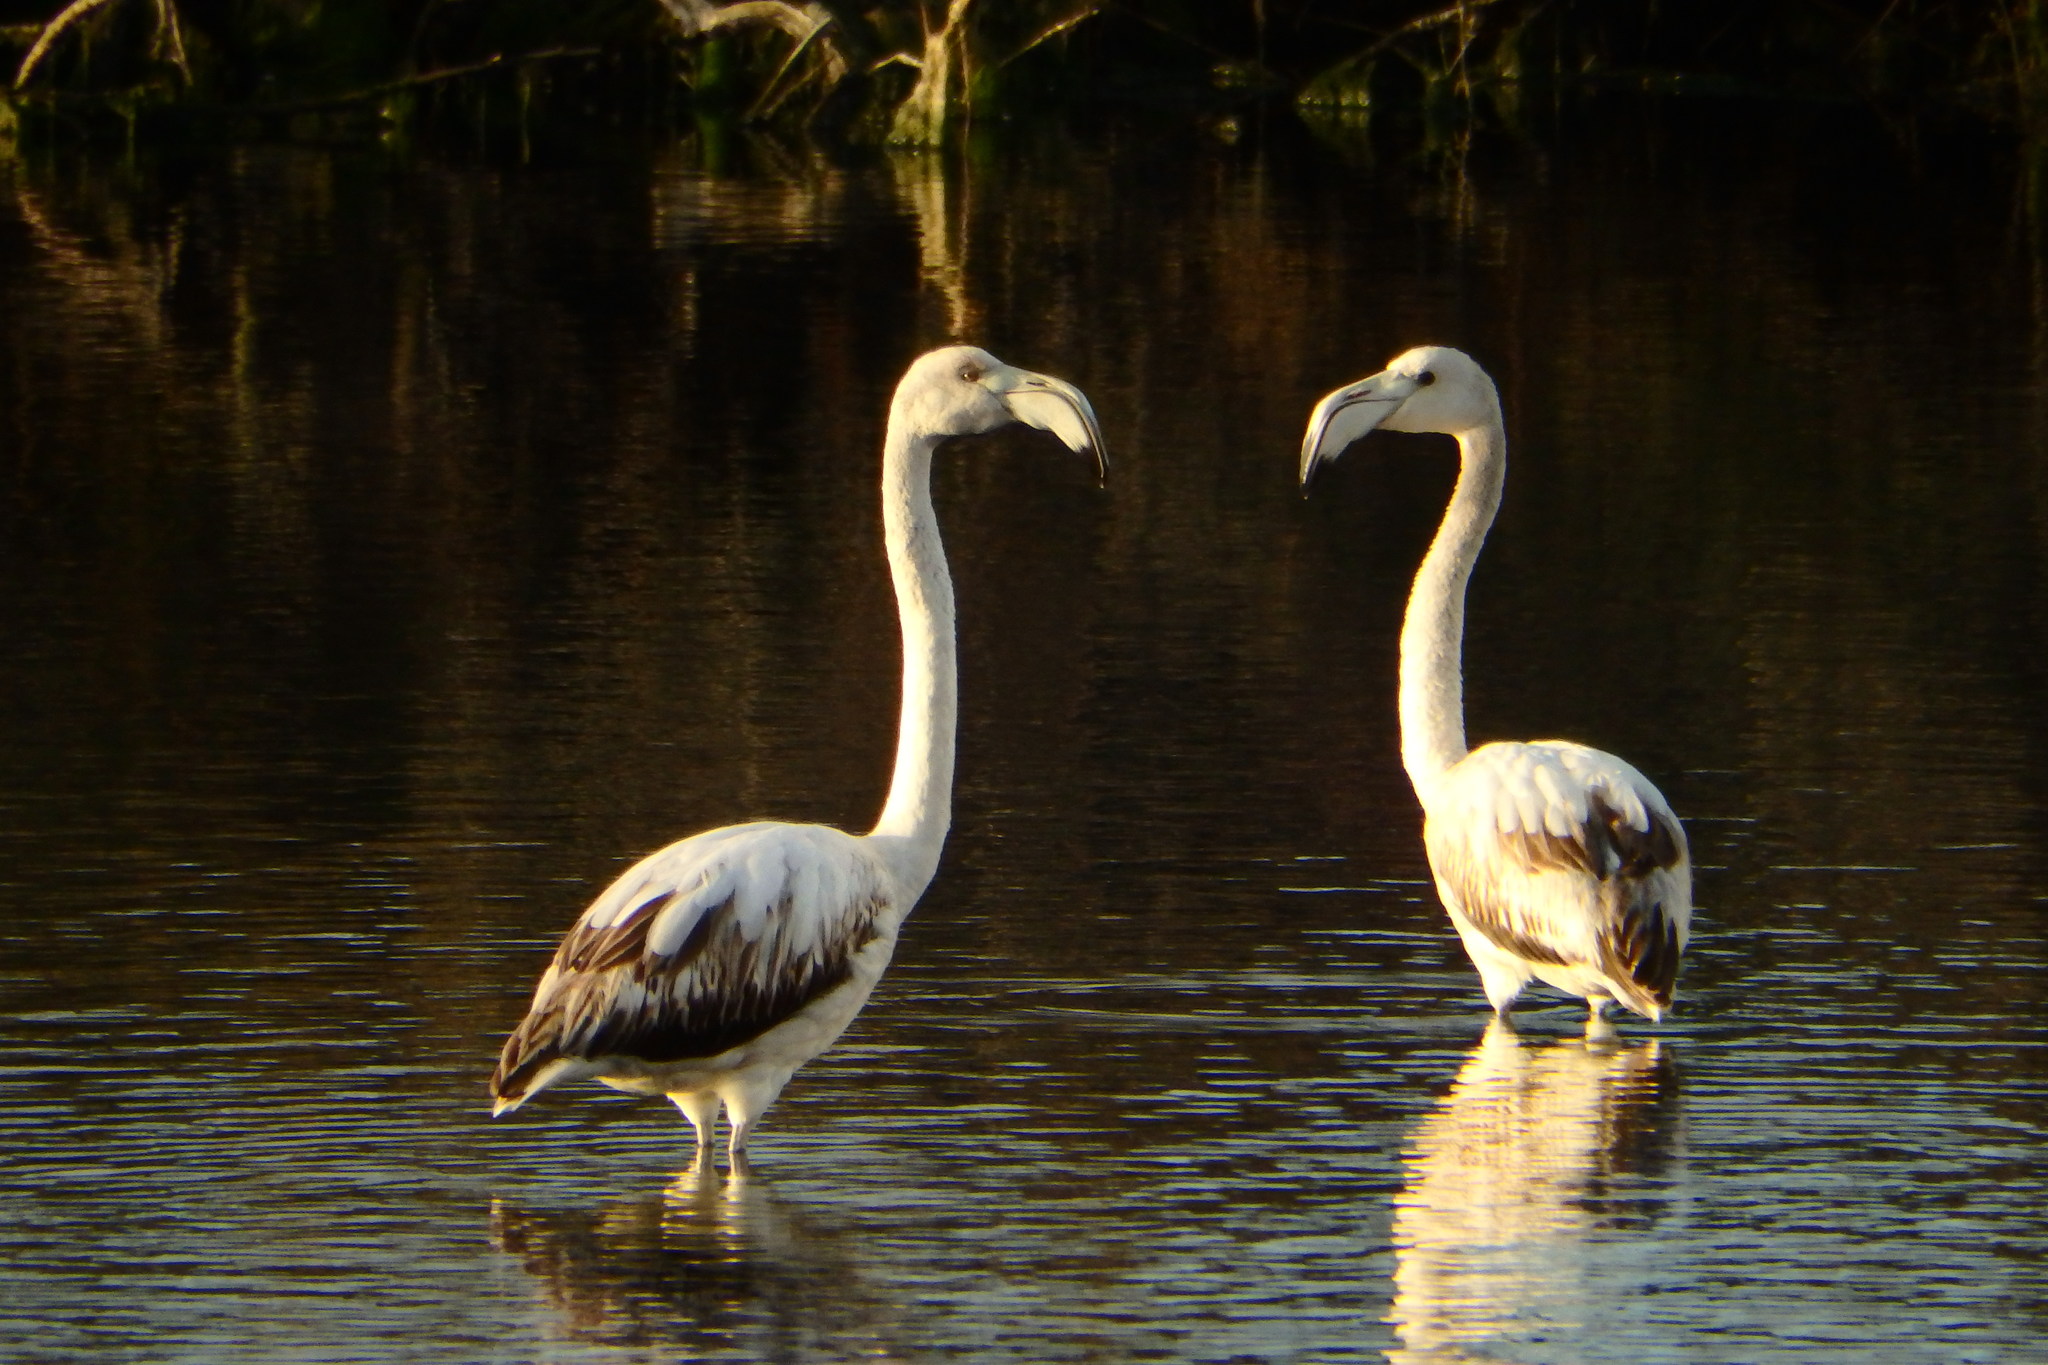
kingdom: Animalia
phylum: Chordata
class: Aves
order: Phoenicopteriformes
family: Phoenicopteridae
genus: Phoenicopterus
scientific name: Phoenicopterus roseus
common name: Greater flamingo
